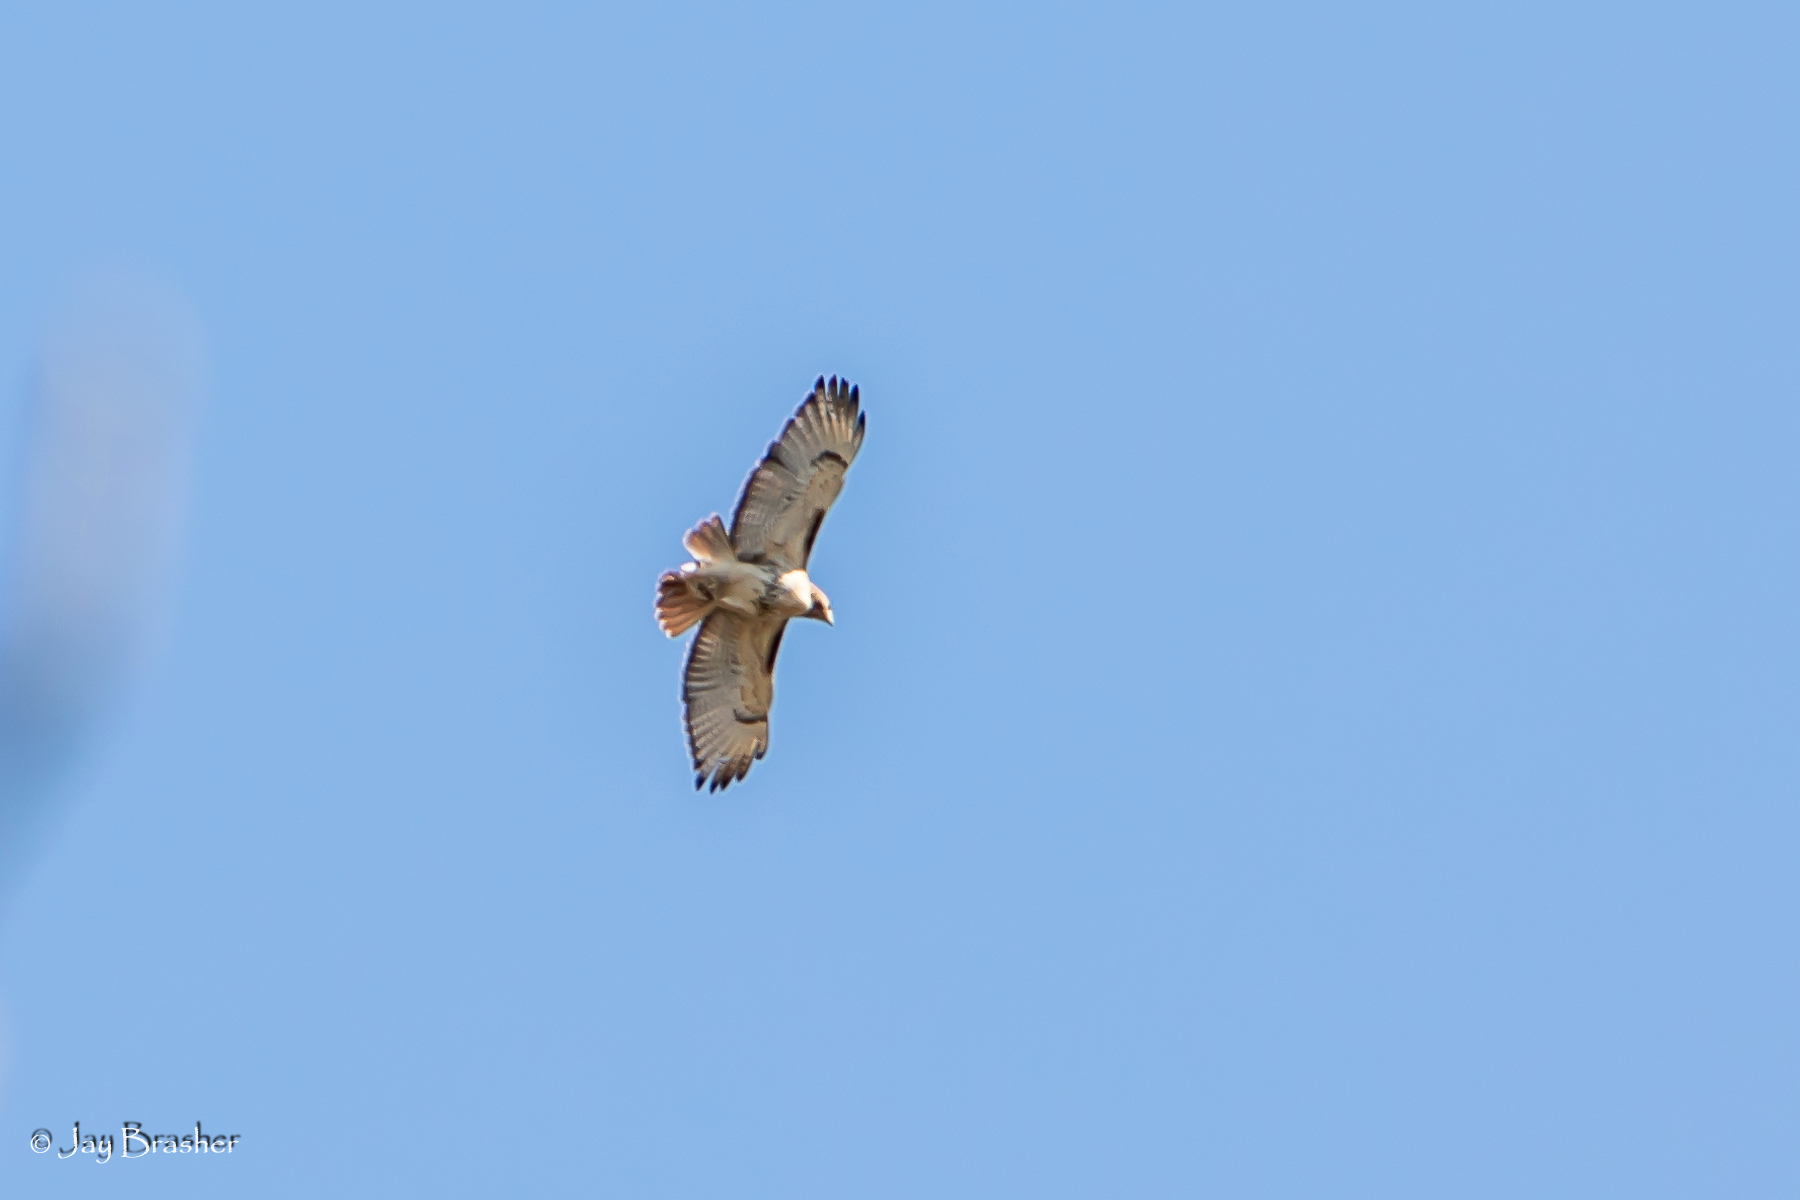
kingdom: Animalia
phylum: Chordata
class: Aves
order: Accipitriformes
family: Accipitridae
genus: Buteo
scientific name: Buteo jamaicensis
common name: Red-tailed hawk
